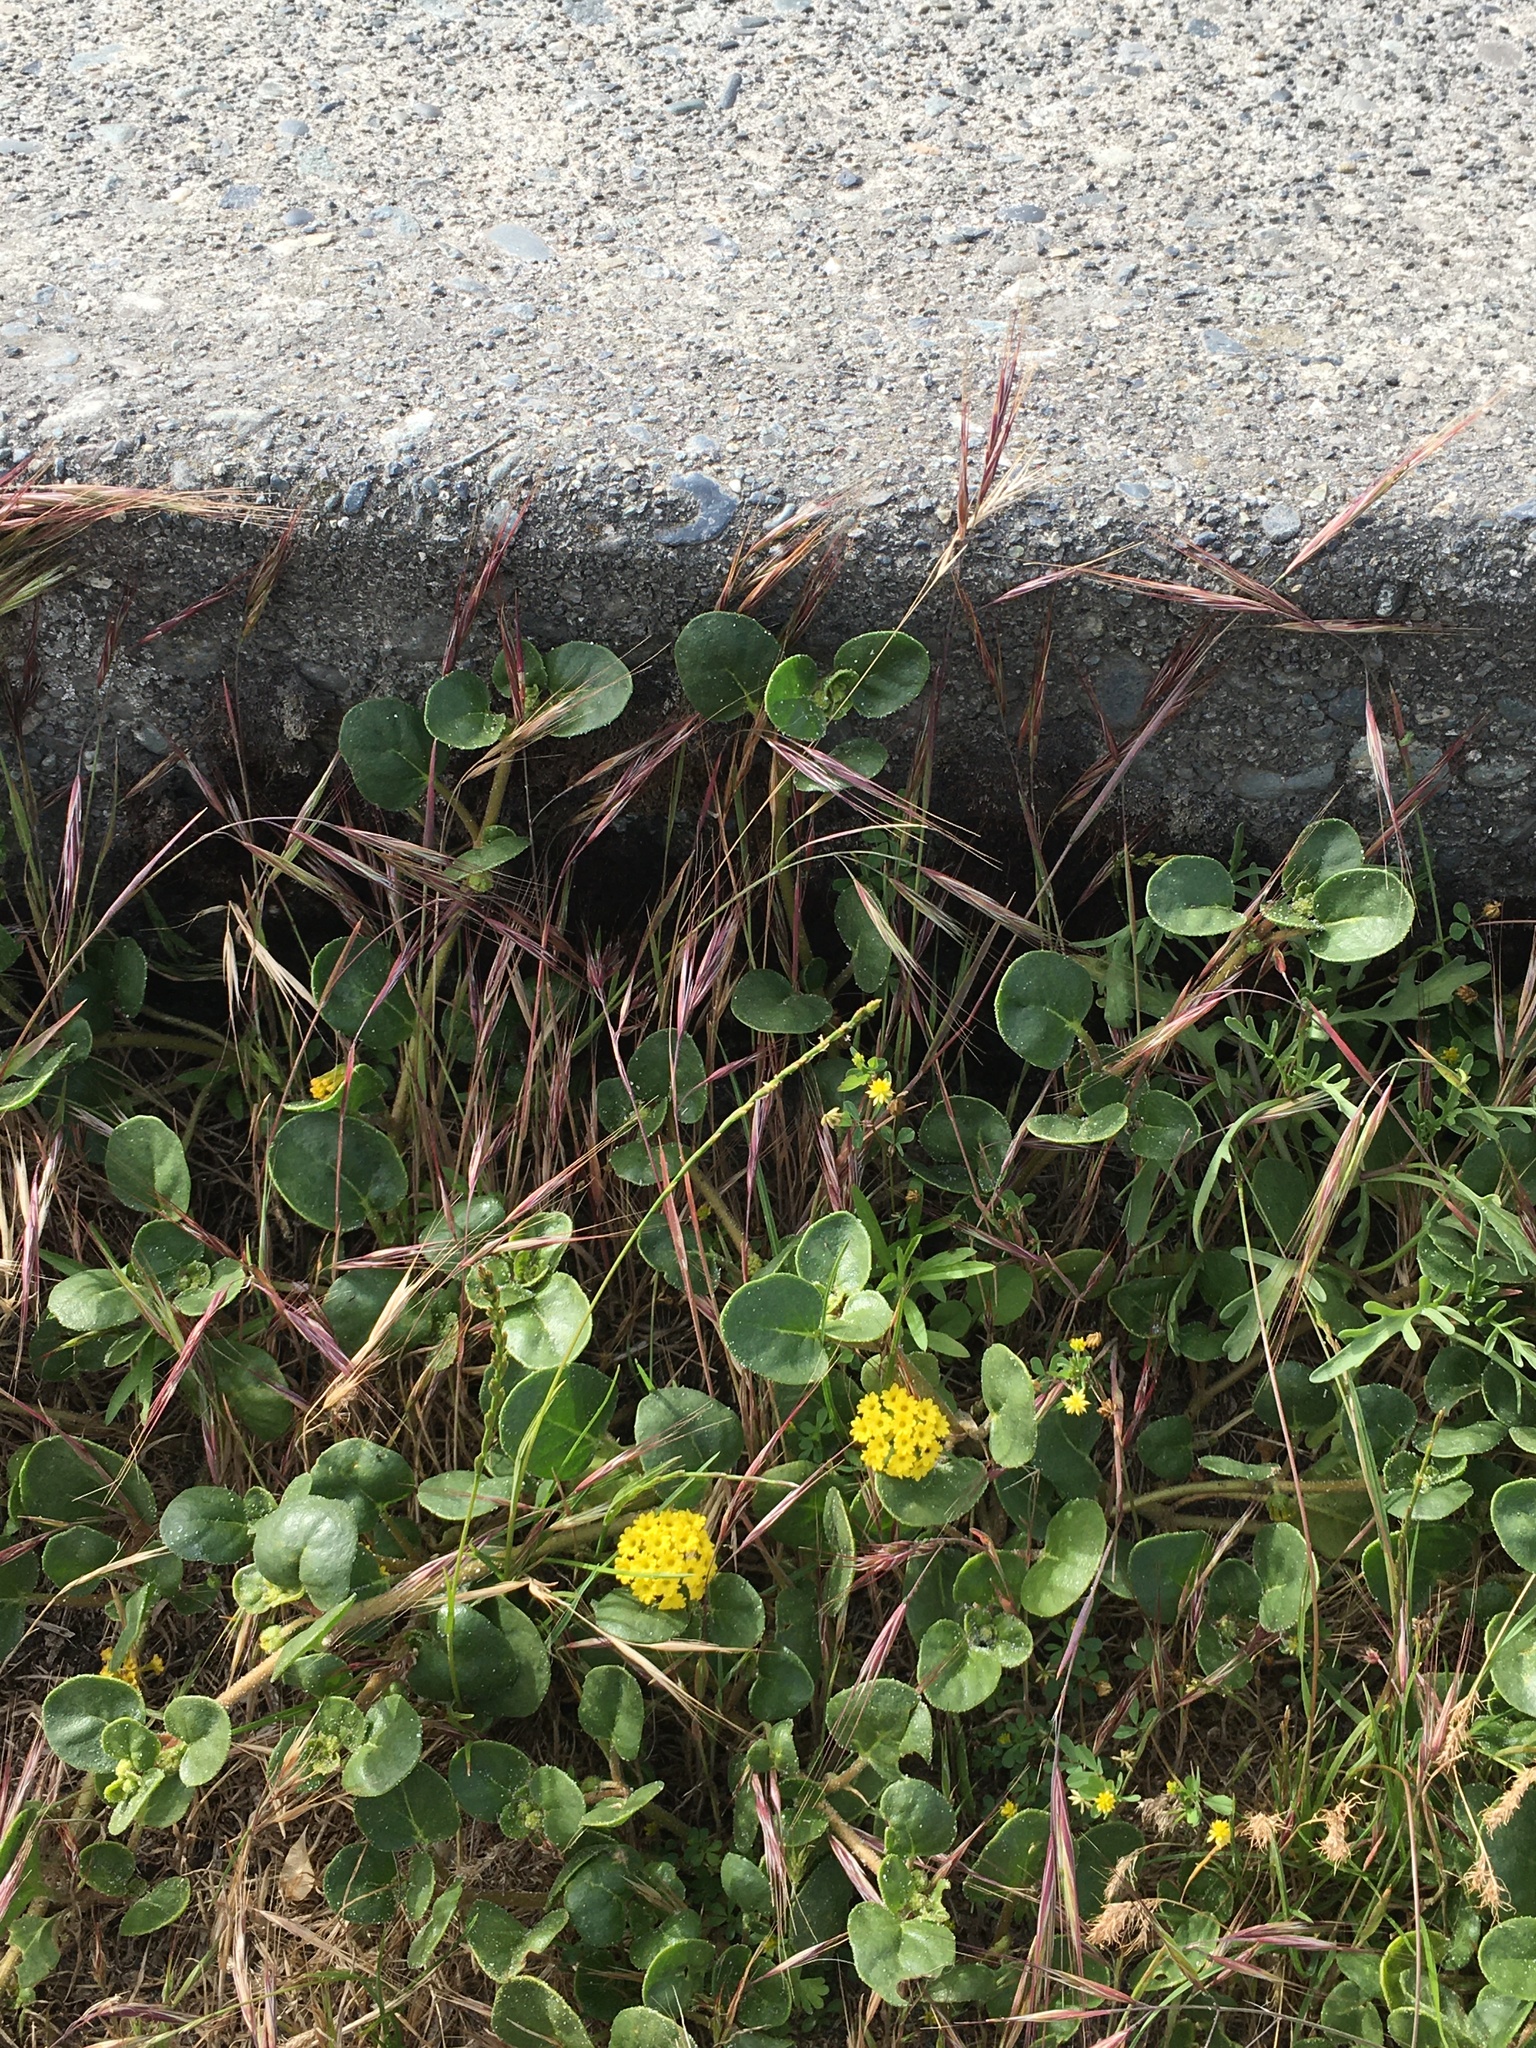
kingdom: Plantae
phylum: Tracheophyta
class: Magnoliopsida
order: Caryophyllales
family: Nyctaginaceae
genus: Abronia
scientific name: Abronia latifolia
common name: Yellow sand-verbena
